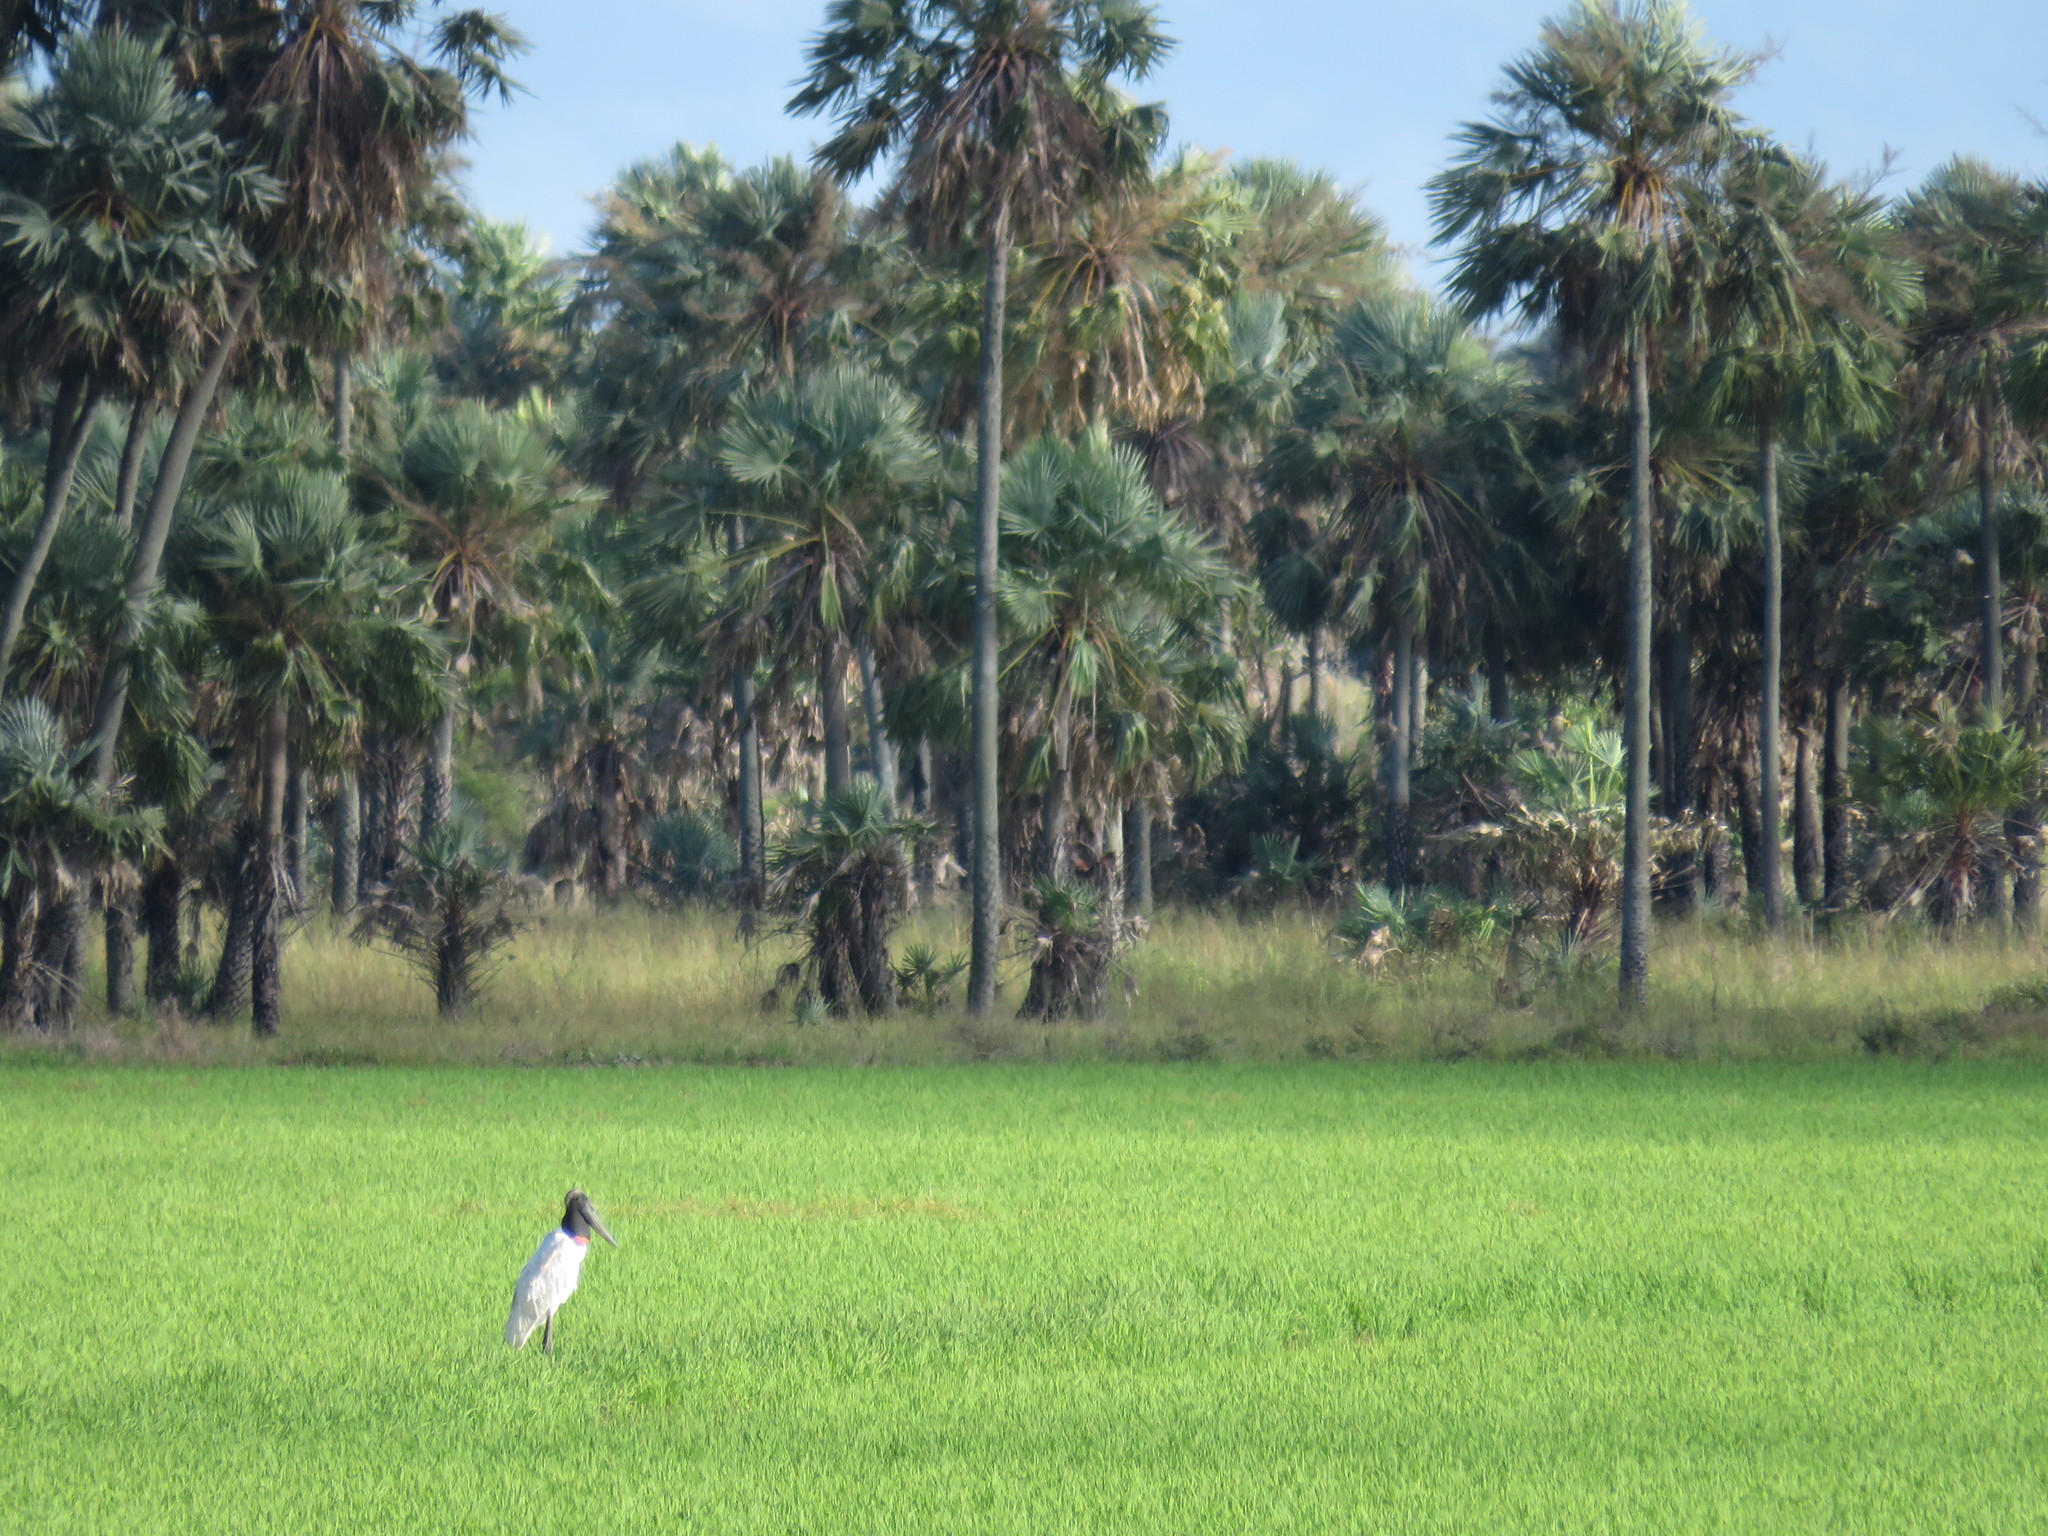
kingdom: Animalia
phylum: Chordata
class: Aves
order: Ciconiiformes
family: Ciconiidae
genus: Jabiru
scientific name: Jabiru mycteria
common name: Jabiru
